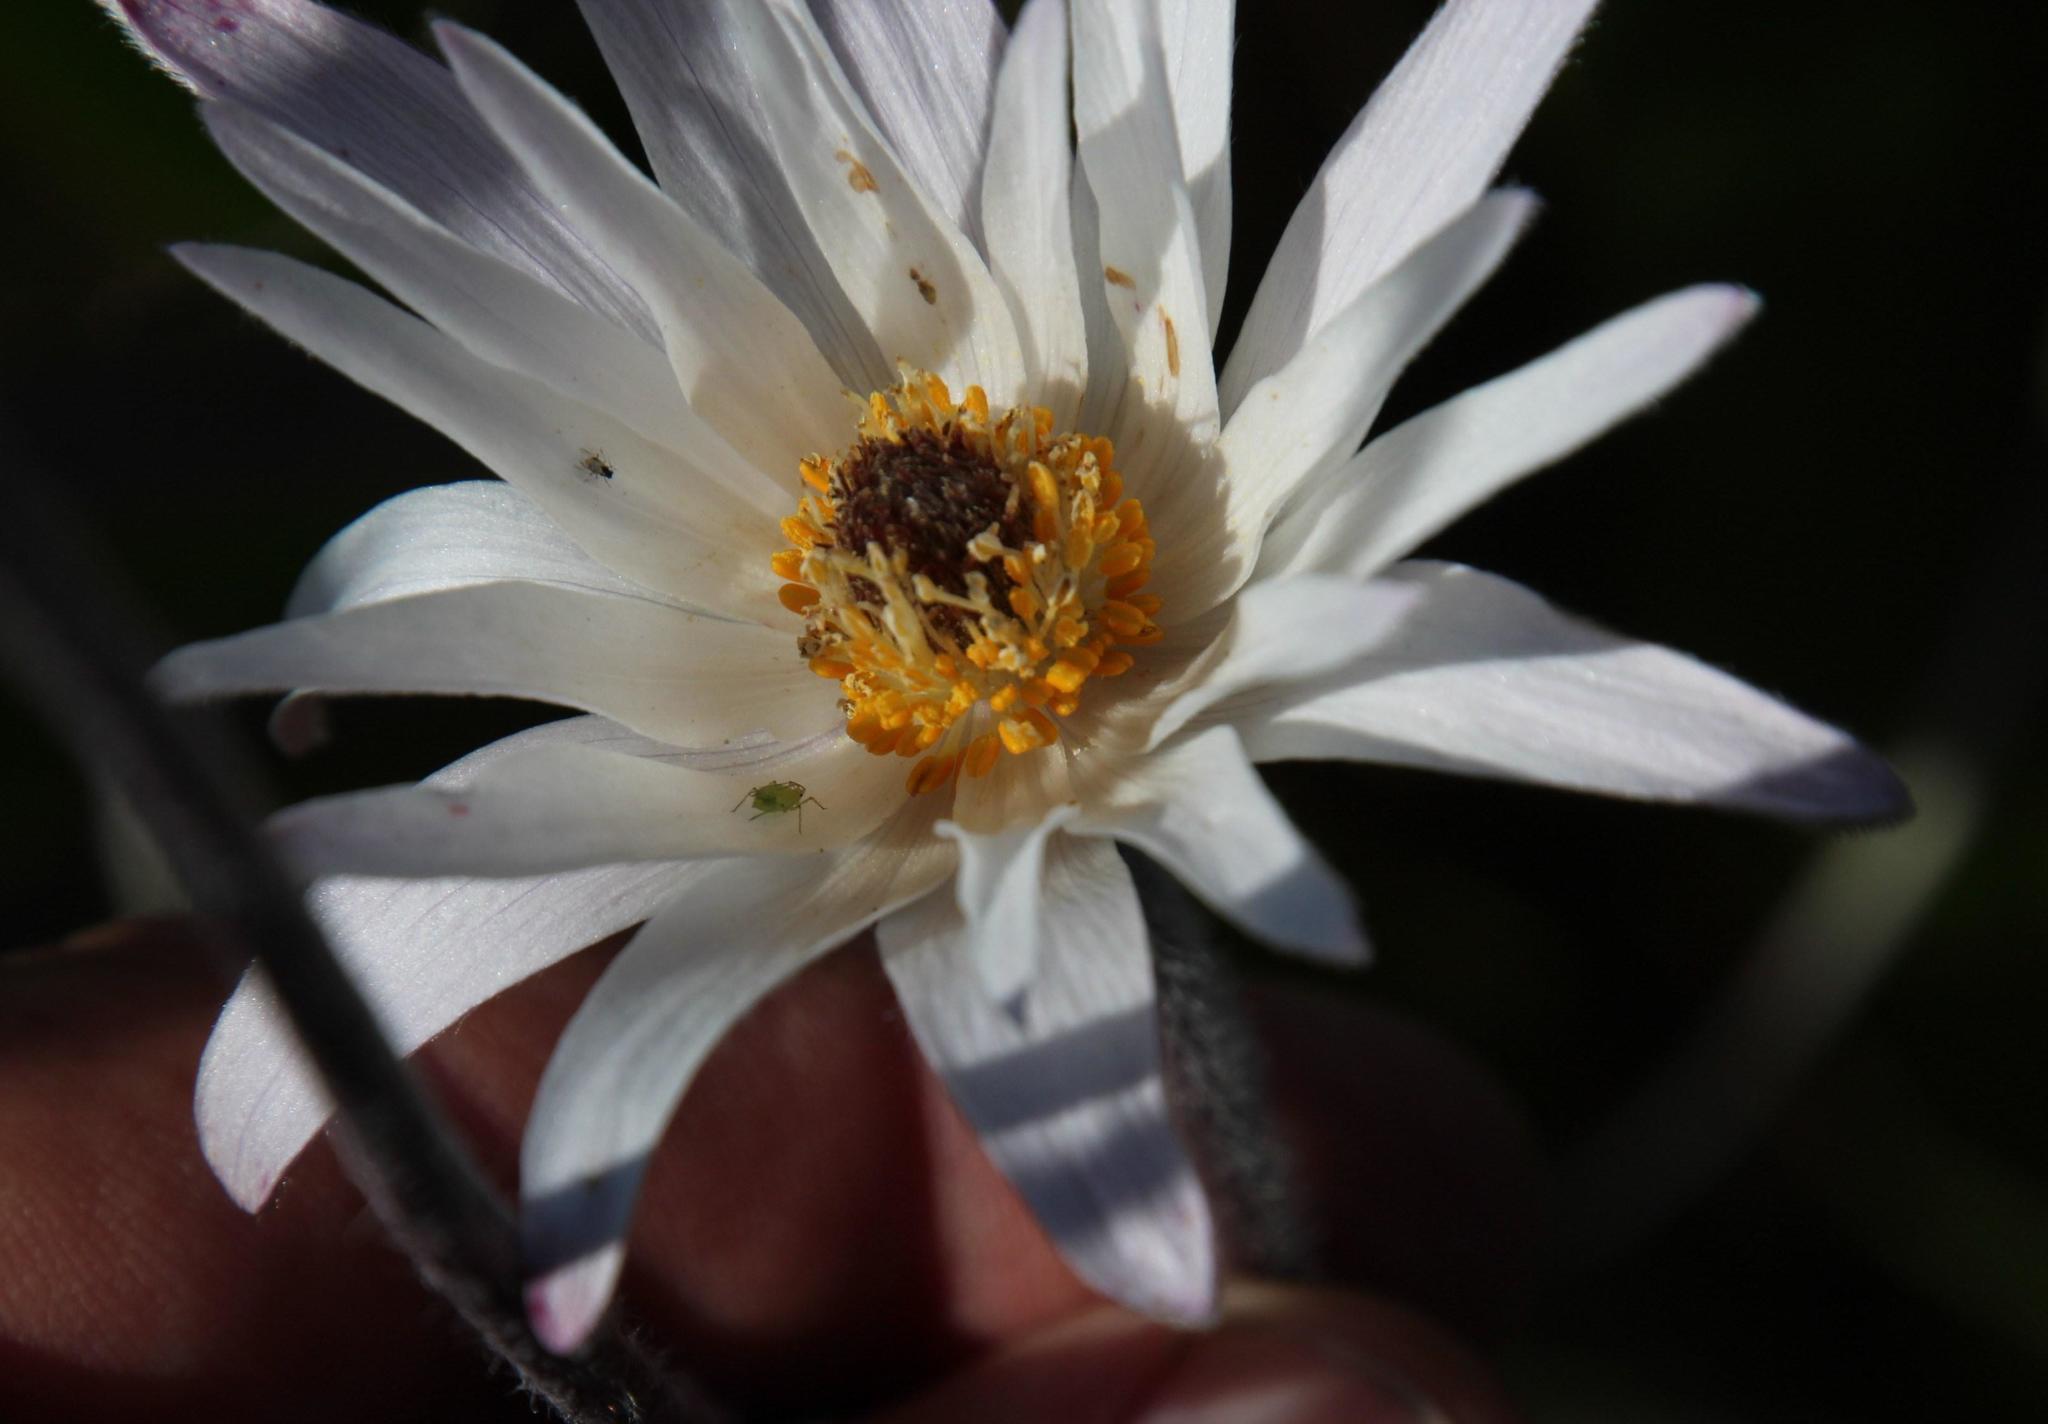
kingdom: Plantae
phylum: Tracheophyta
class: Magnoliopsida
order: Ranunculales
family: Ranunculaceae
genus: Knowltonia
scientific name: Knowltonia tenuifolia
